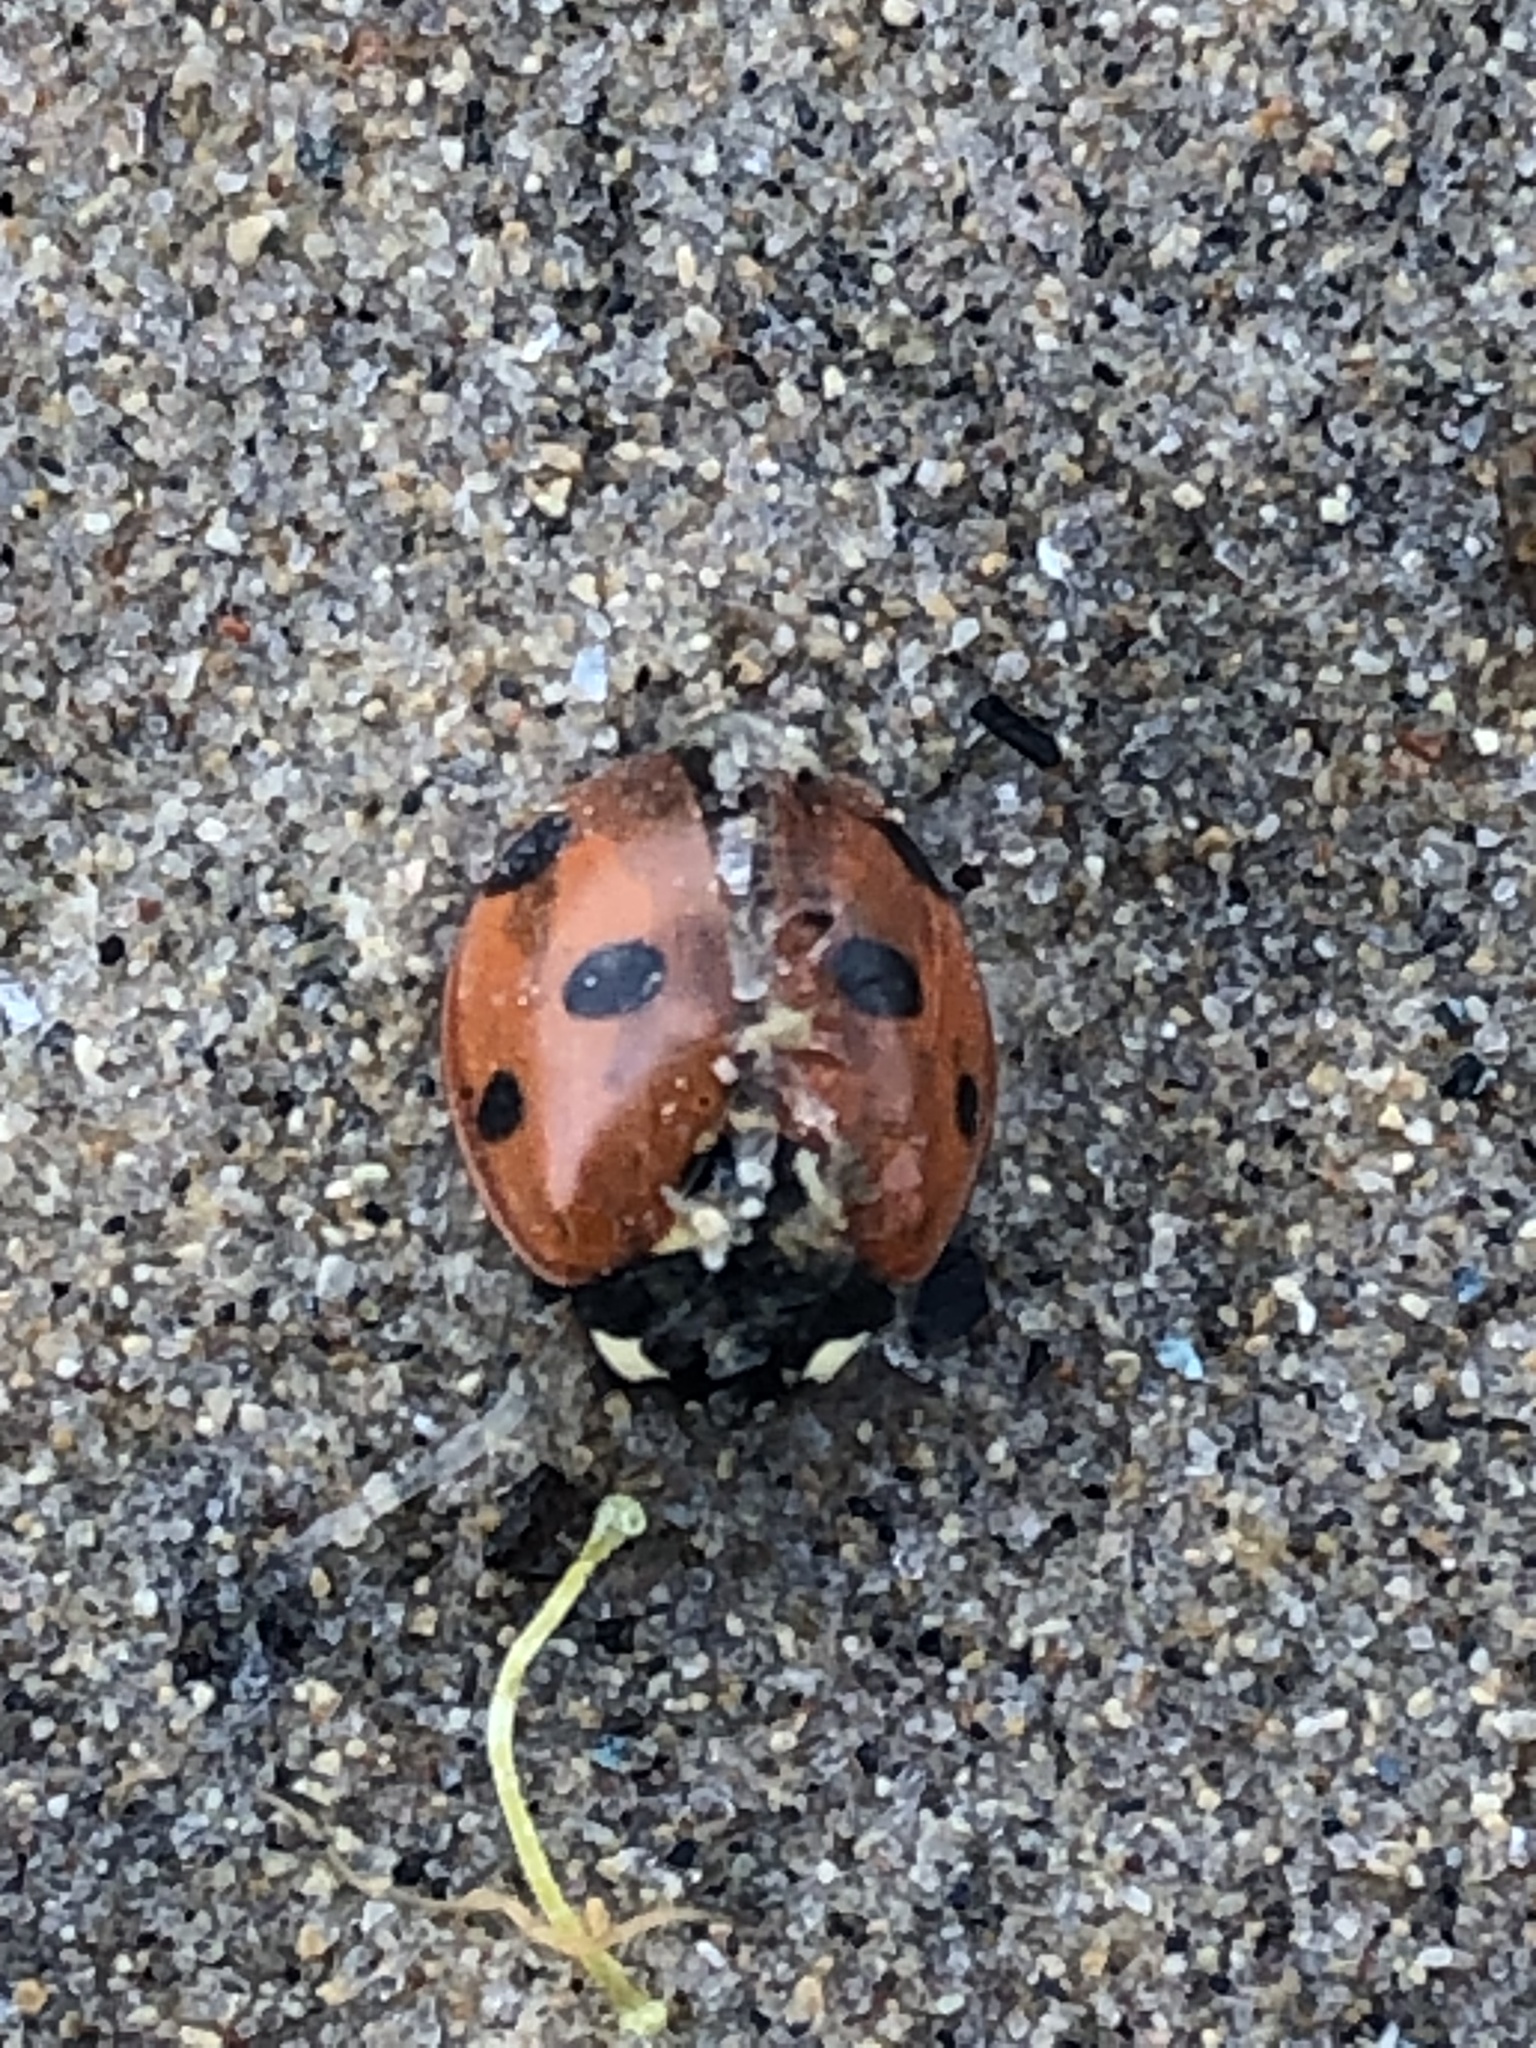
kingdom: Animalia
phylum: Arthropoda
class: Insecta
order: Coleoptera
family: Coccinellidae
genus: Coccinella
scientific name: Coccinella septempunctata
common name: Sevenspotted lady beetle
